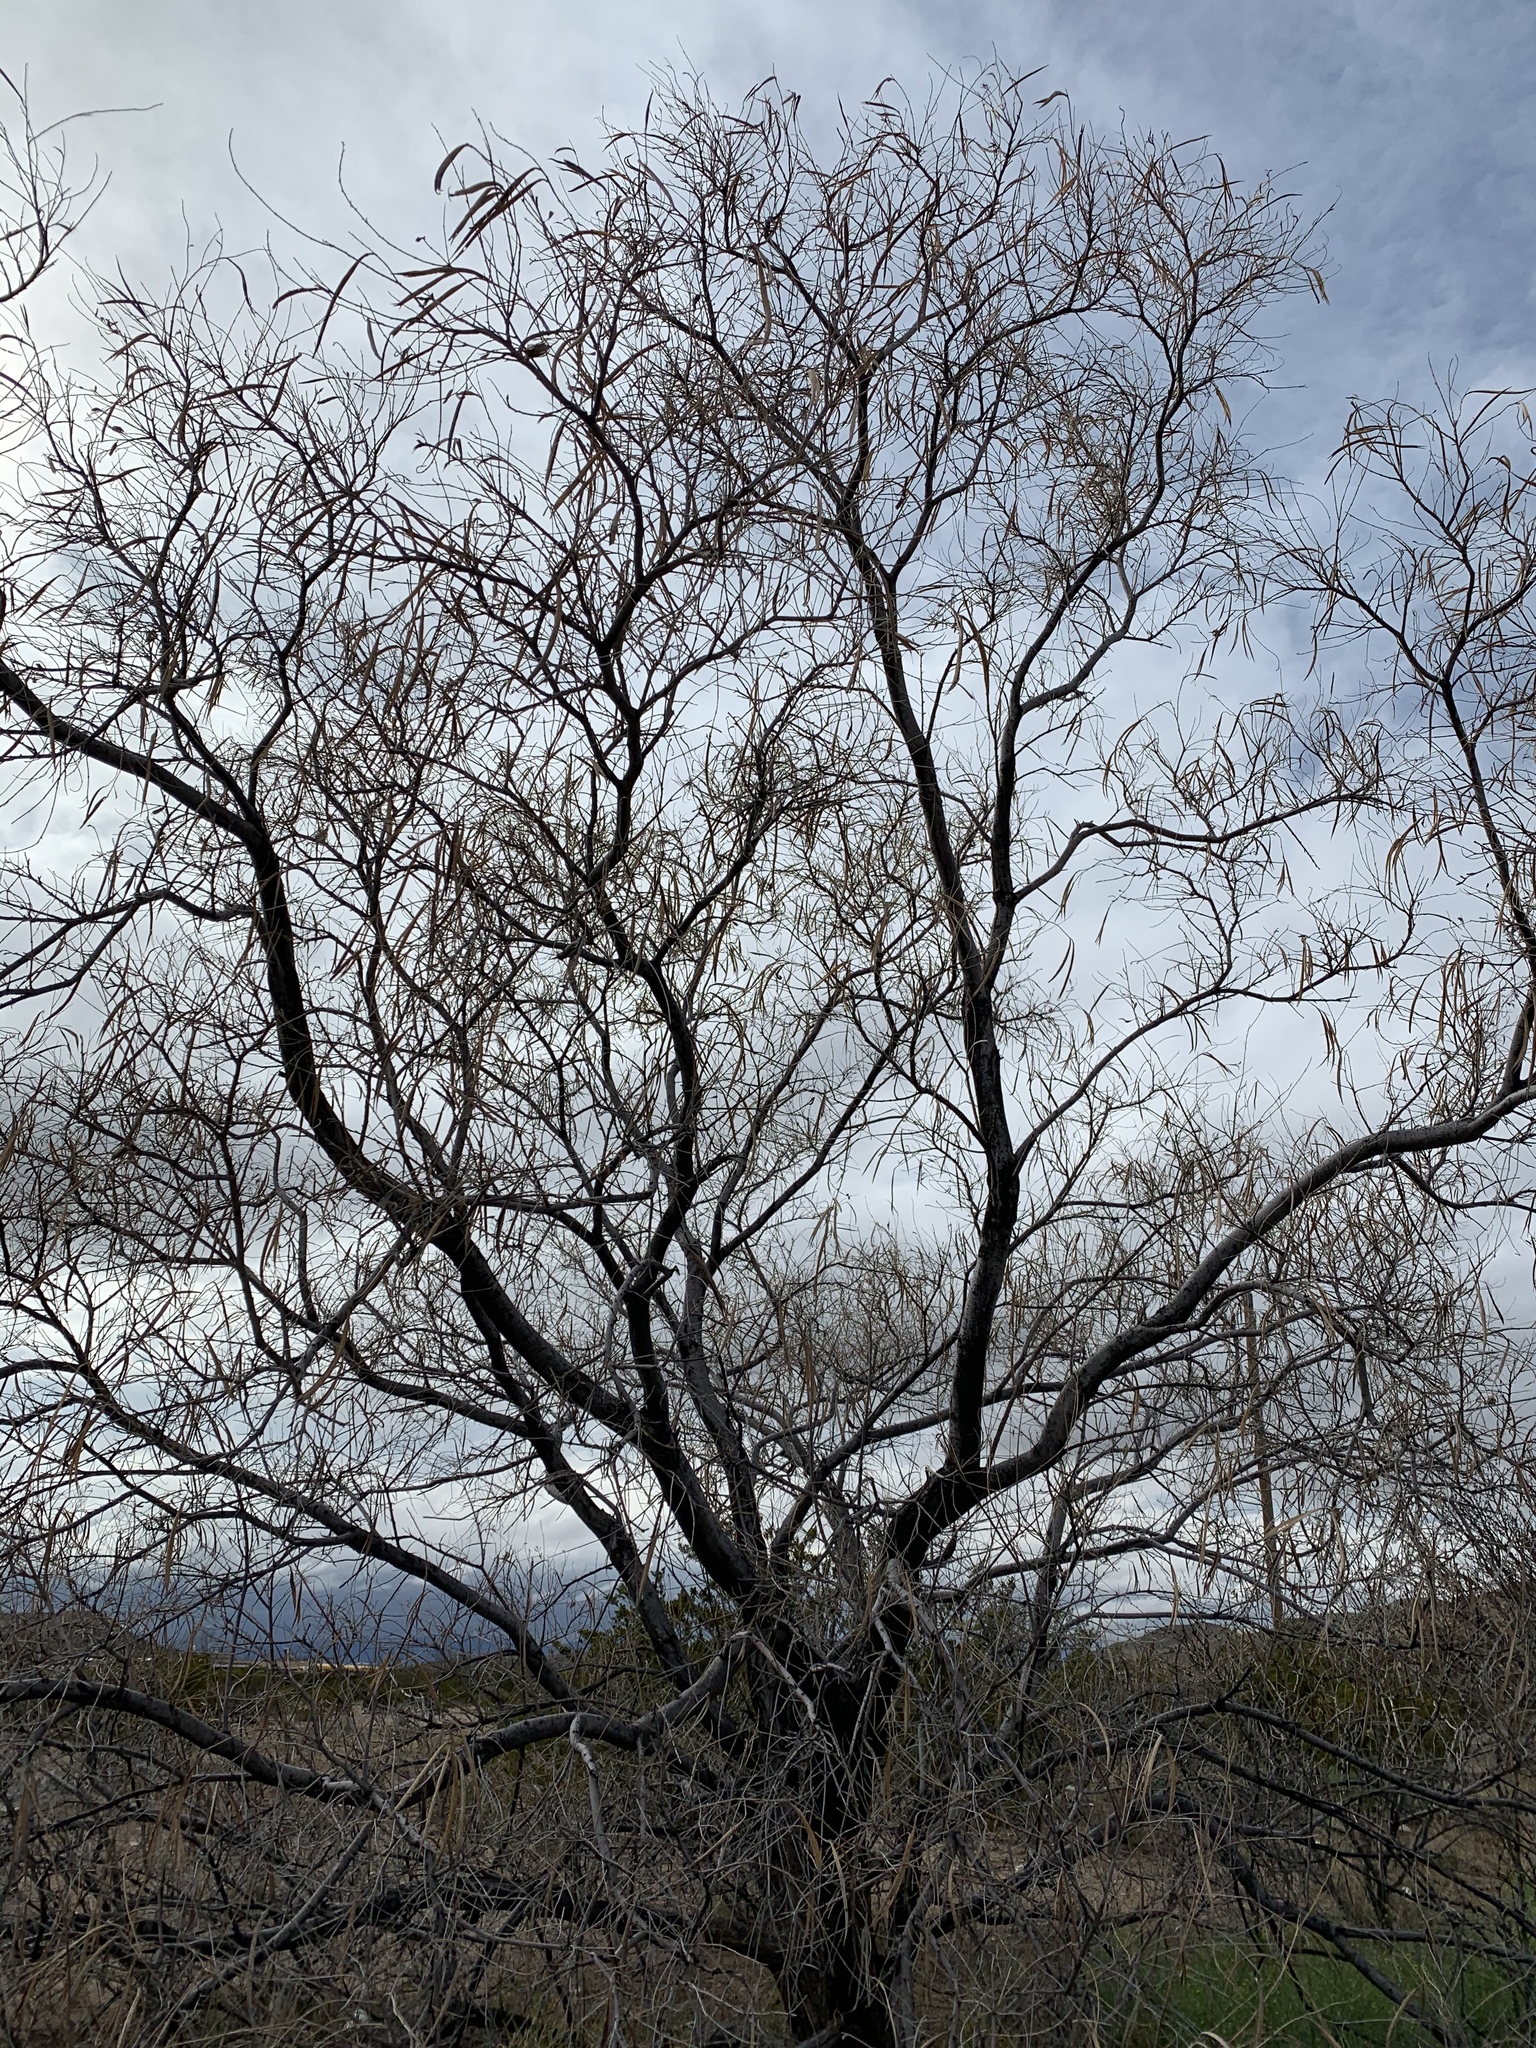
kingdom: Plantae
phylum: Tracheophyta
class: Magnoliopsida
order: Lamiales
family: Bignoniaceae
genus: Chilopsis
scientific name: Chilopsis linearis
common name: Desert-willow
